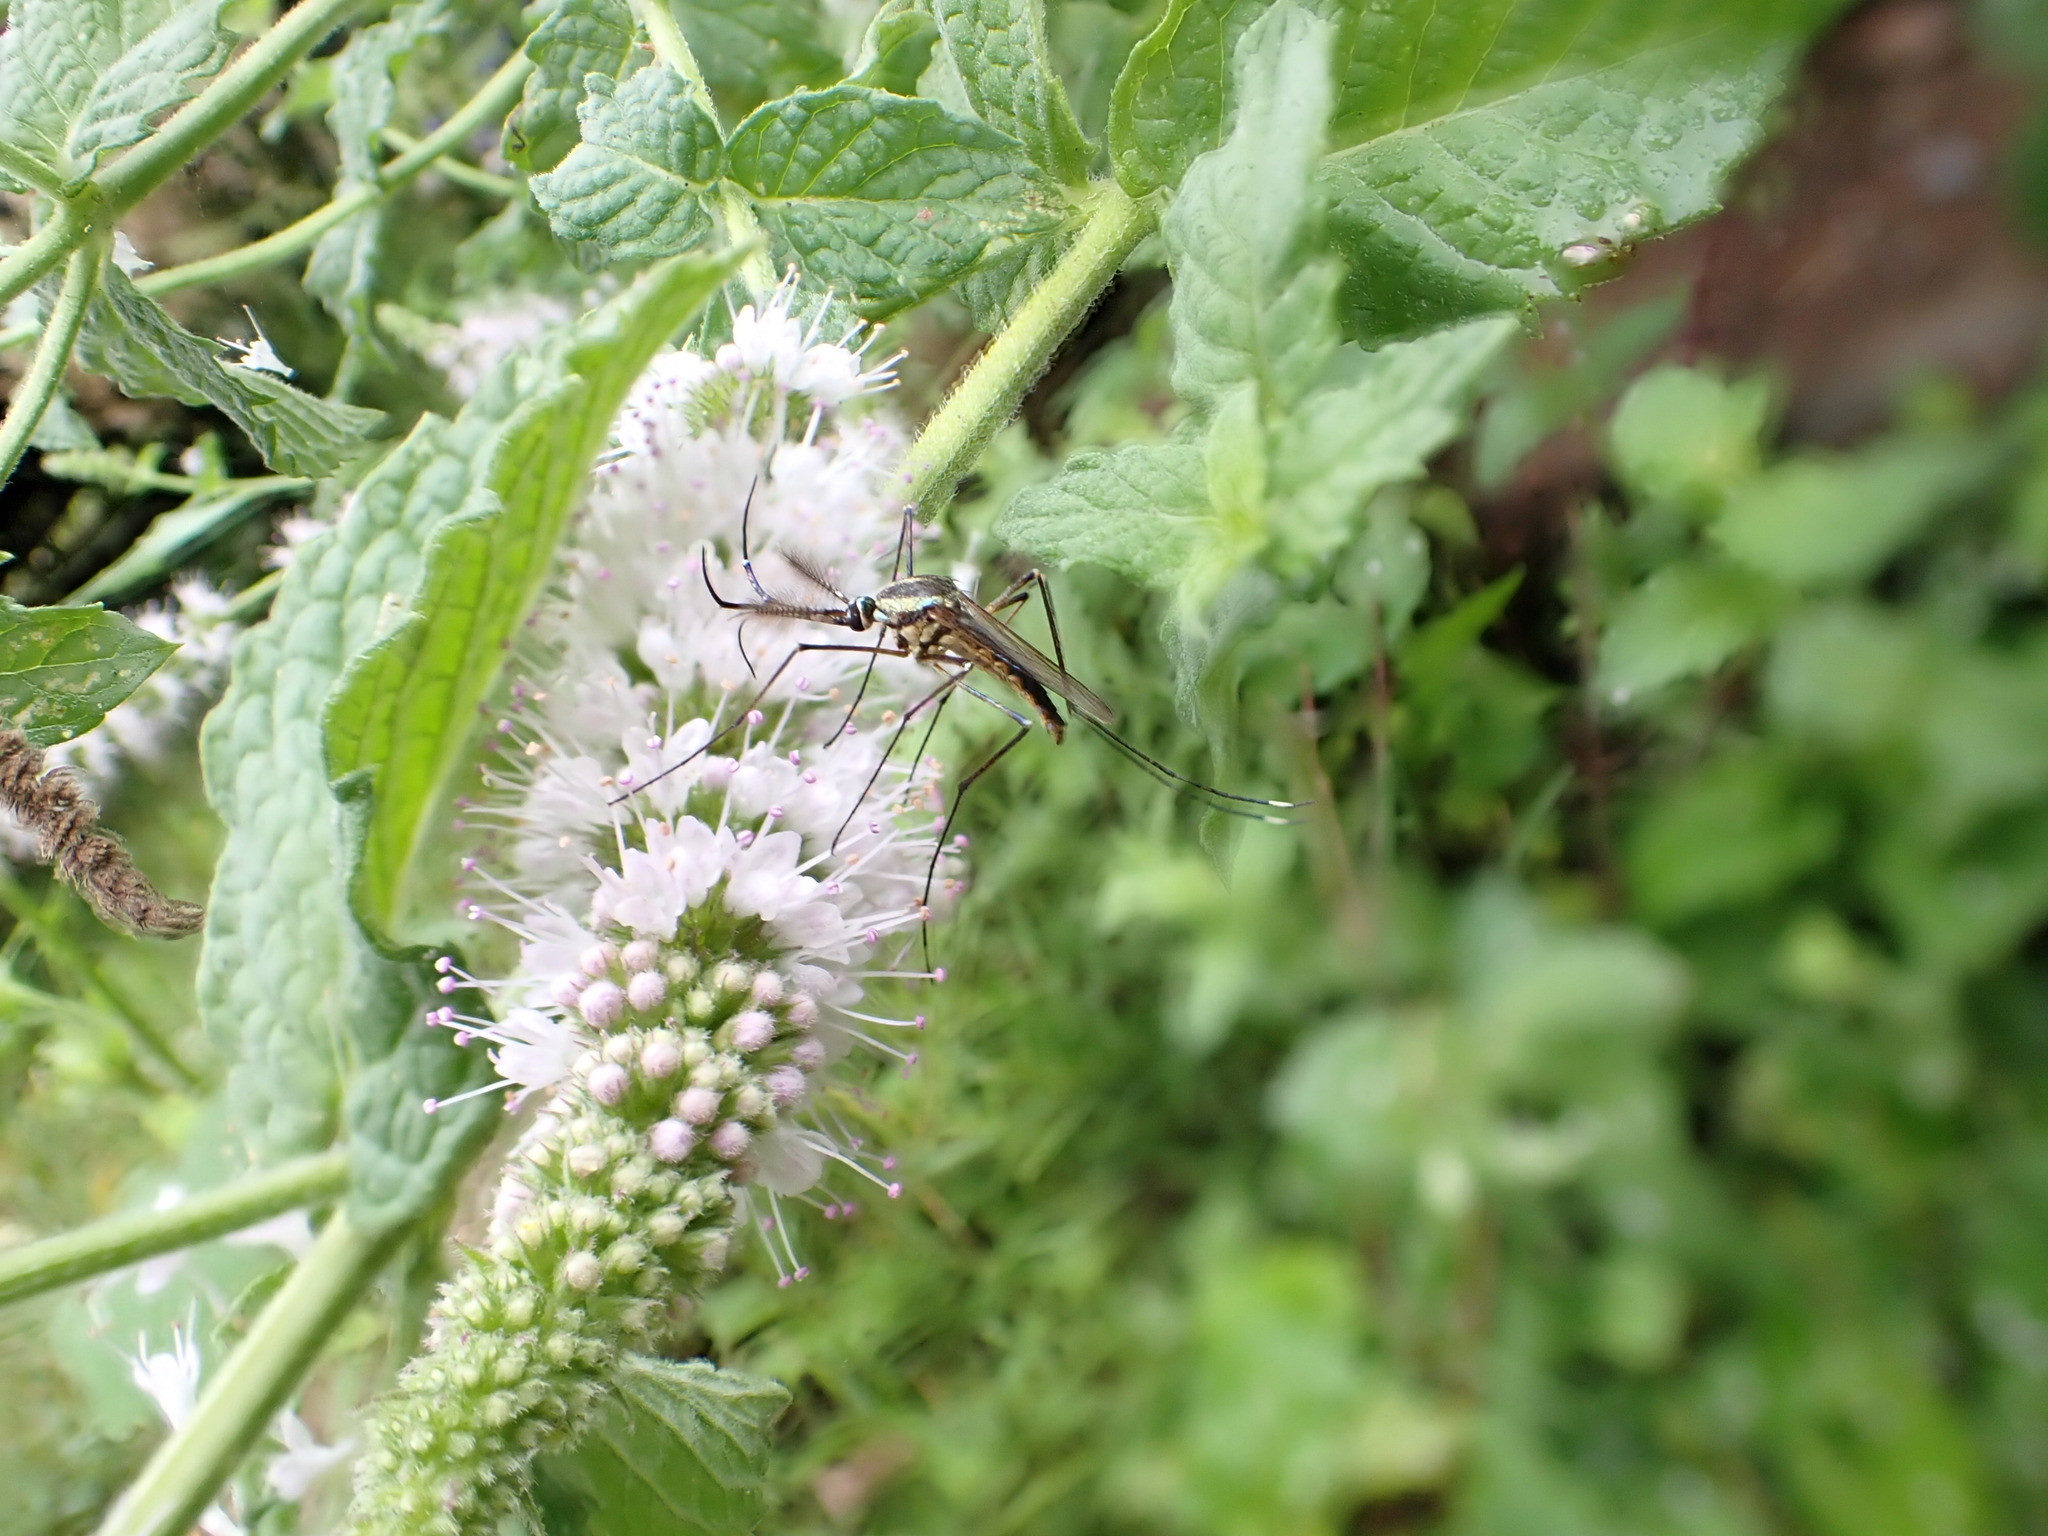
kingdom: Animalia
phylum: Arthropoda
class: Insecta
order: Diptera
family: Culicidae
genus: Toxorhynchites
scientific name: Toxorhynchites rutilus
